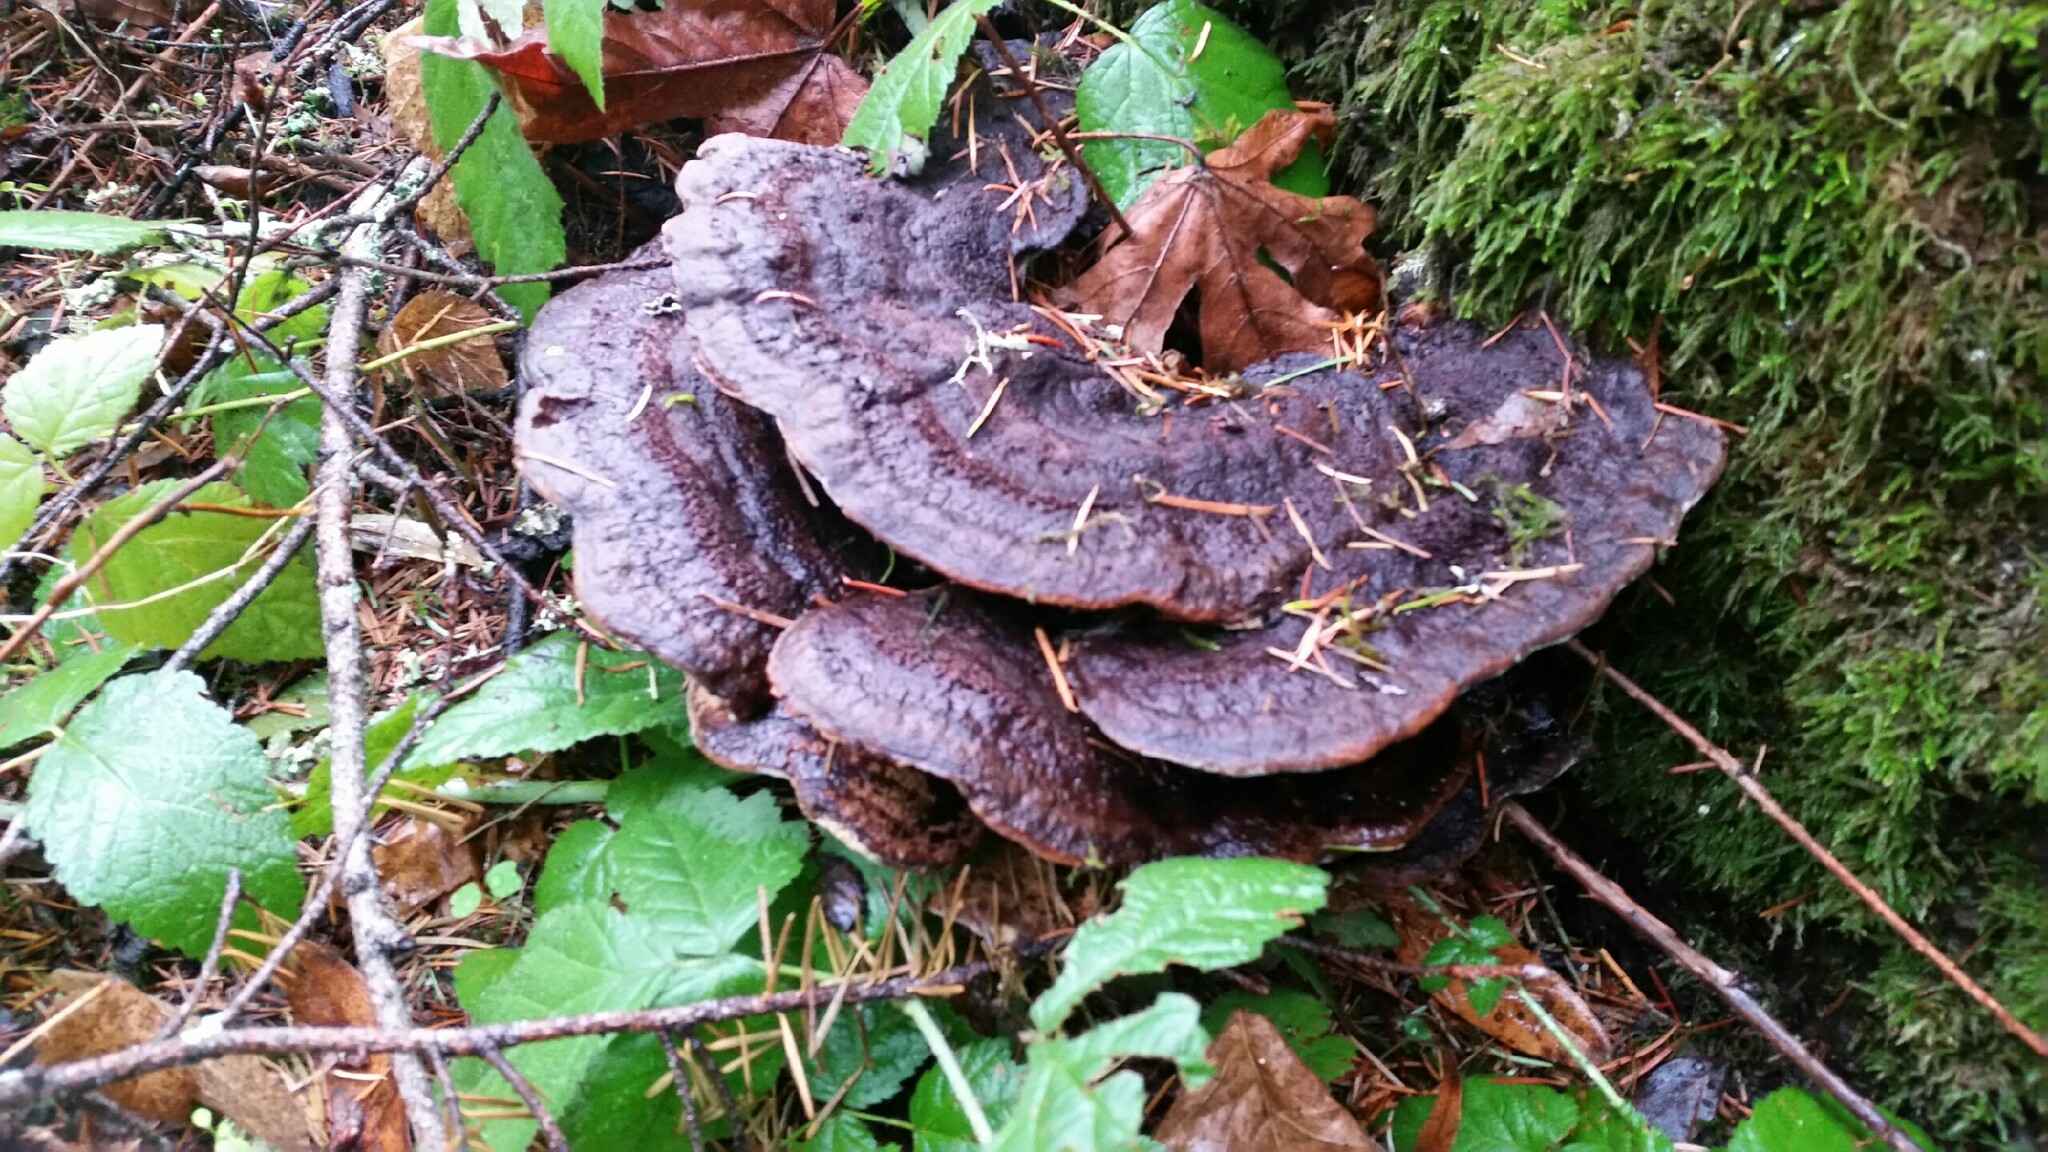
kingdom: Fungi
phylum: Basidiomycota
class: Agaricomycetes
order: Polyporales
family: Laetiporaceae
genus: Phaeolus
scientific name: Phaeolus schweinitzii
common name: Dyer's mazegill
